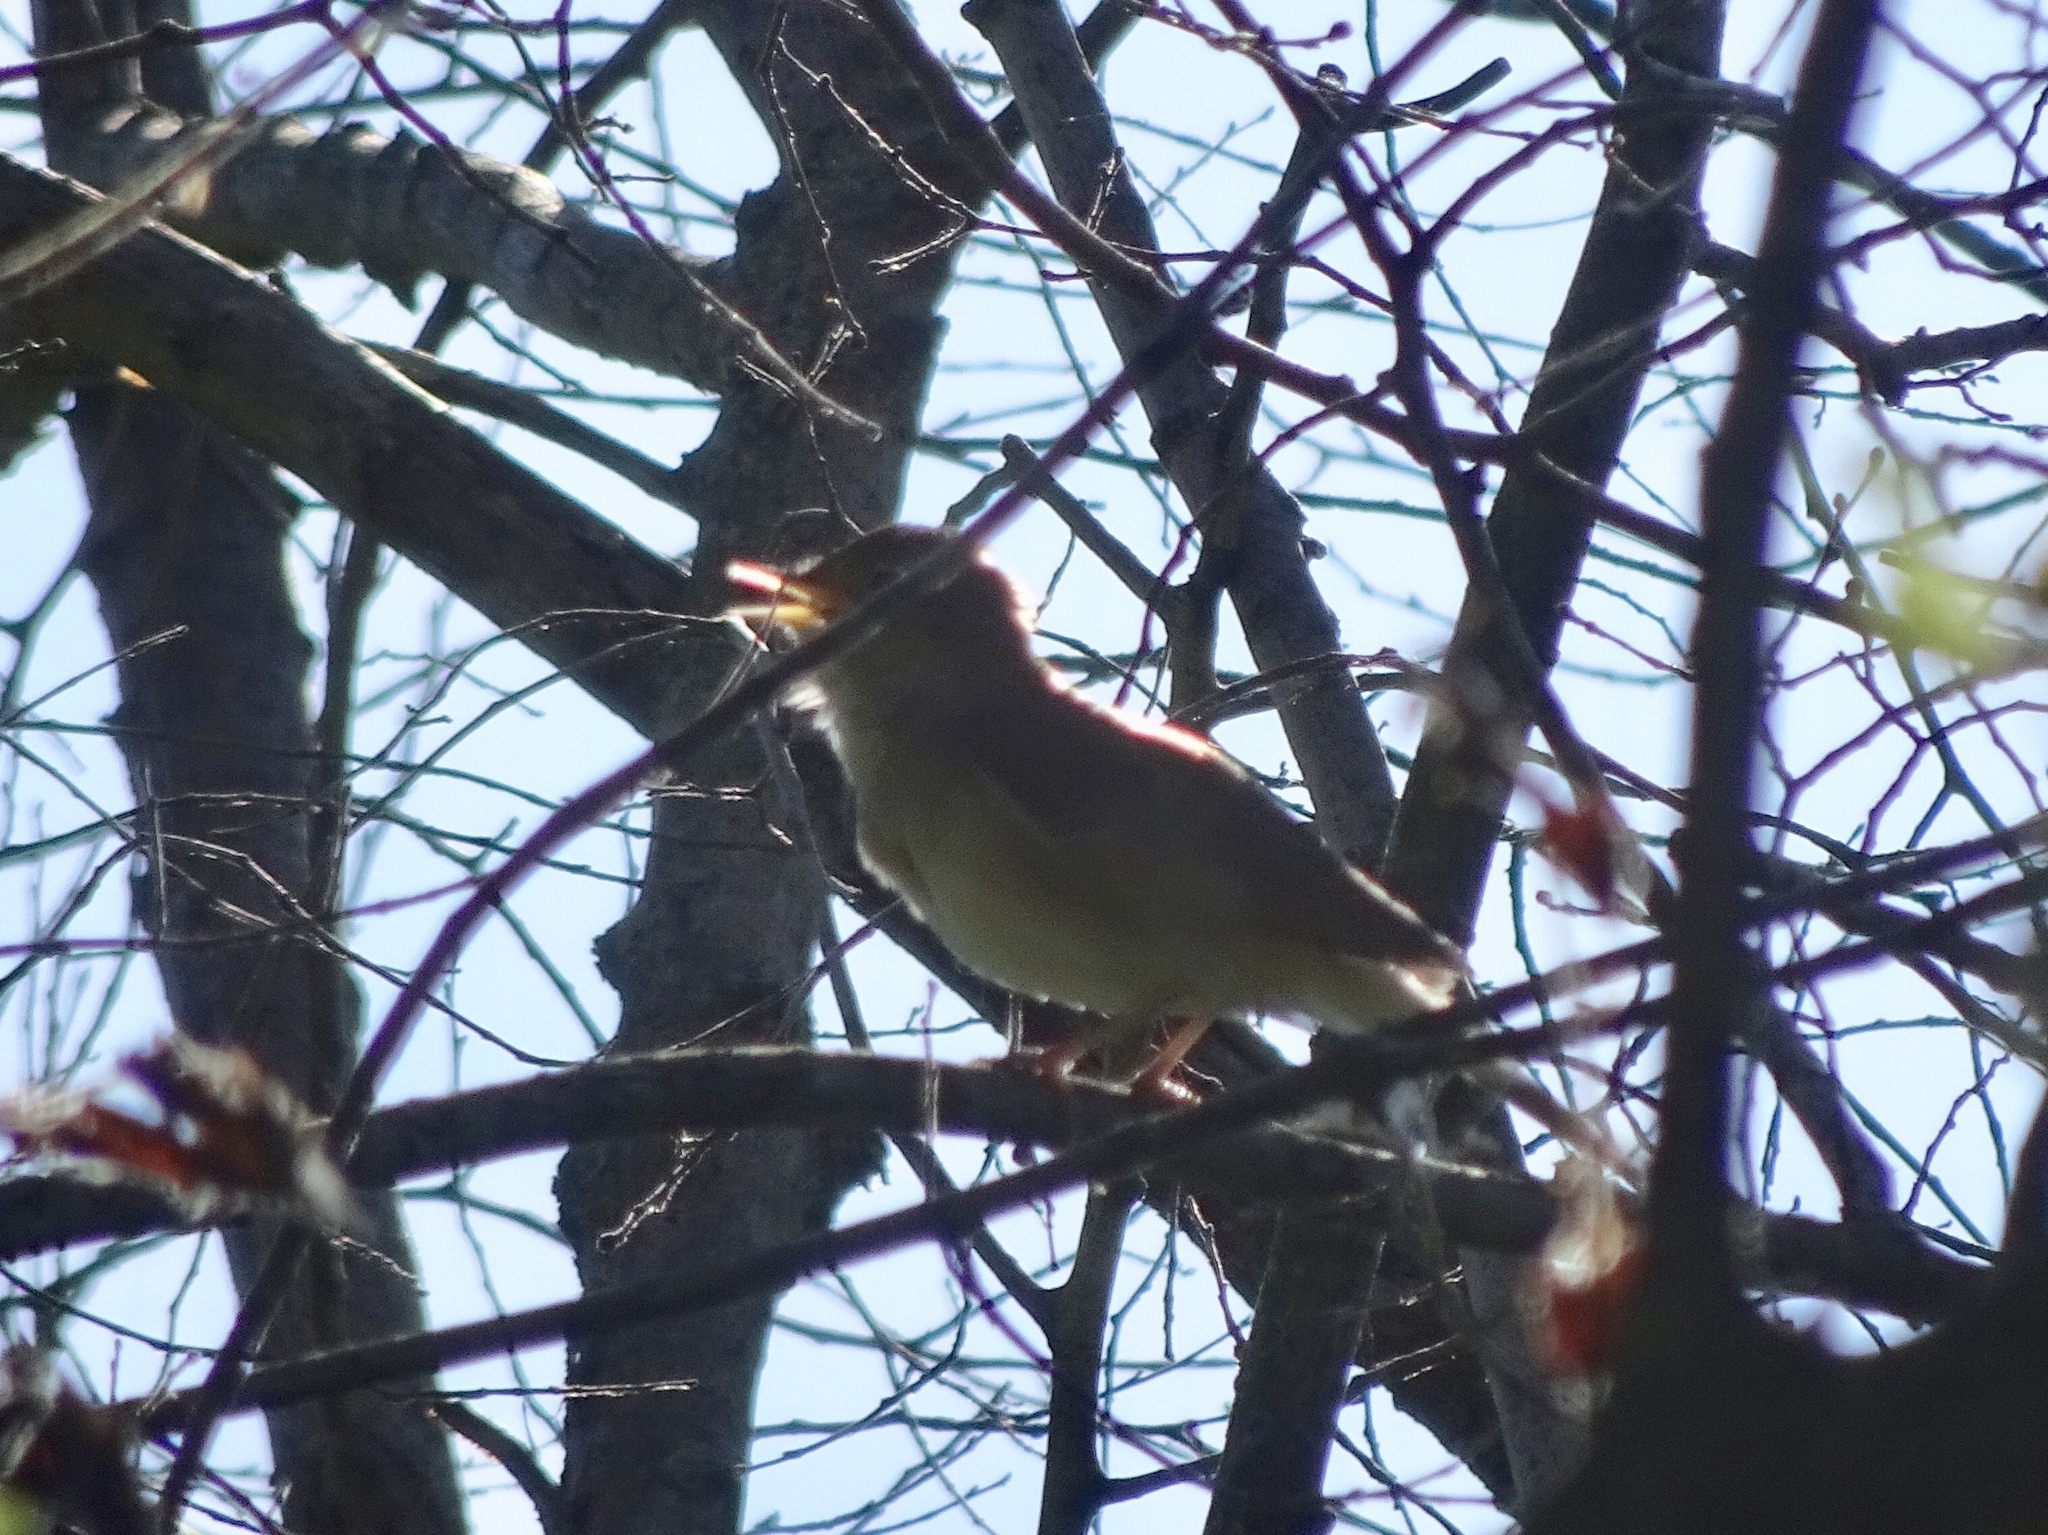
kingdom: Animalia
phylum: Chordata
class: Aves
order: Passeriformes
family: Muscicapidae
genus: Luscinia
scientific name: Luscinia megarhynchos
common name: Common nightingale
